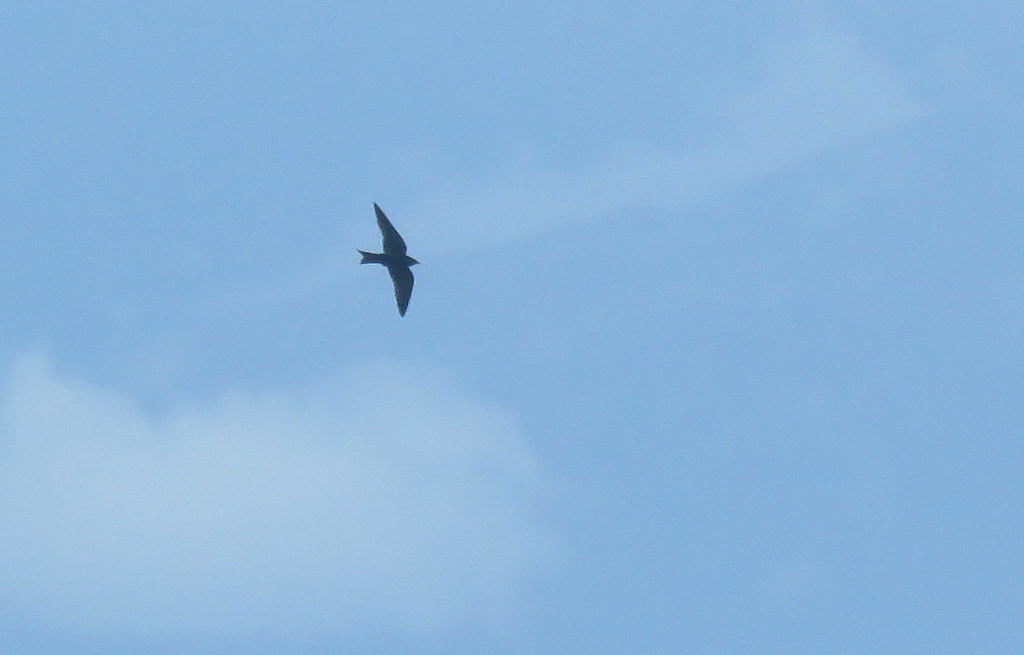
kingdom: Animalia
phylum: Chordata
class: Aves
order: Passeriformes
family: Hirundinidae
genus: Progne
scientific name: Progne elegans
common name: Southern martin
